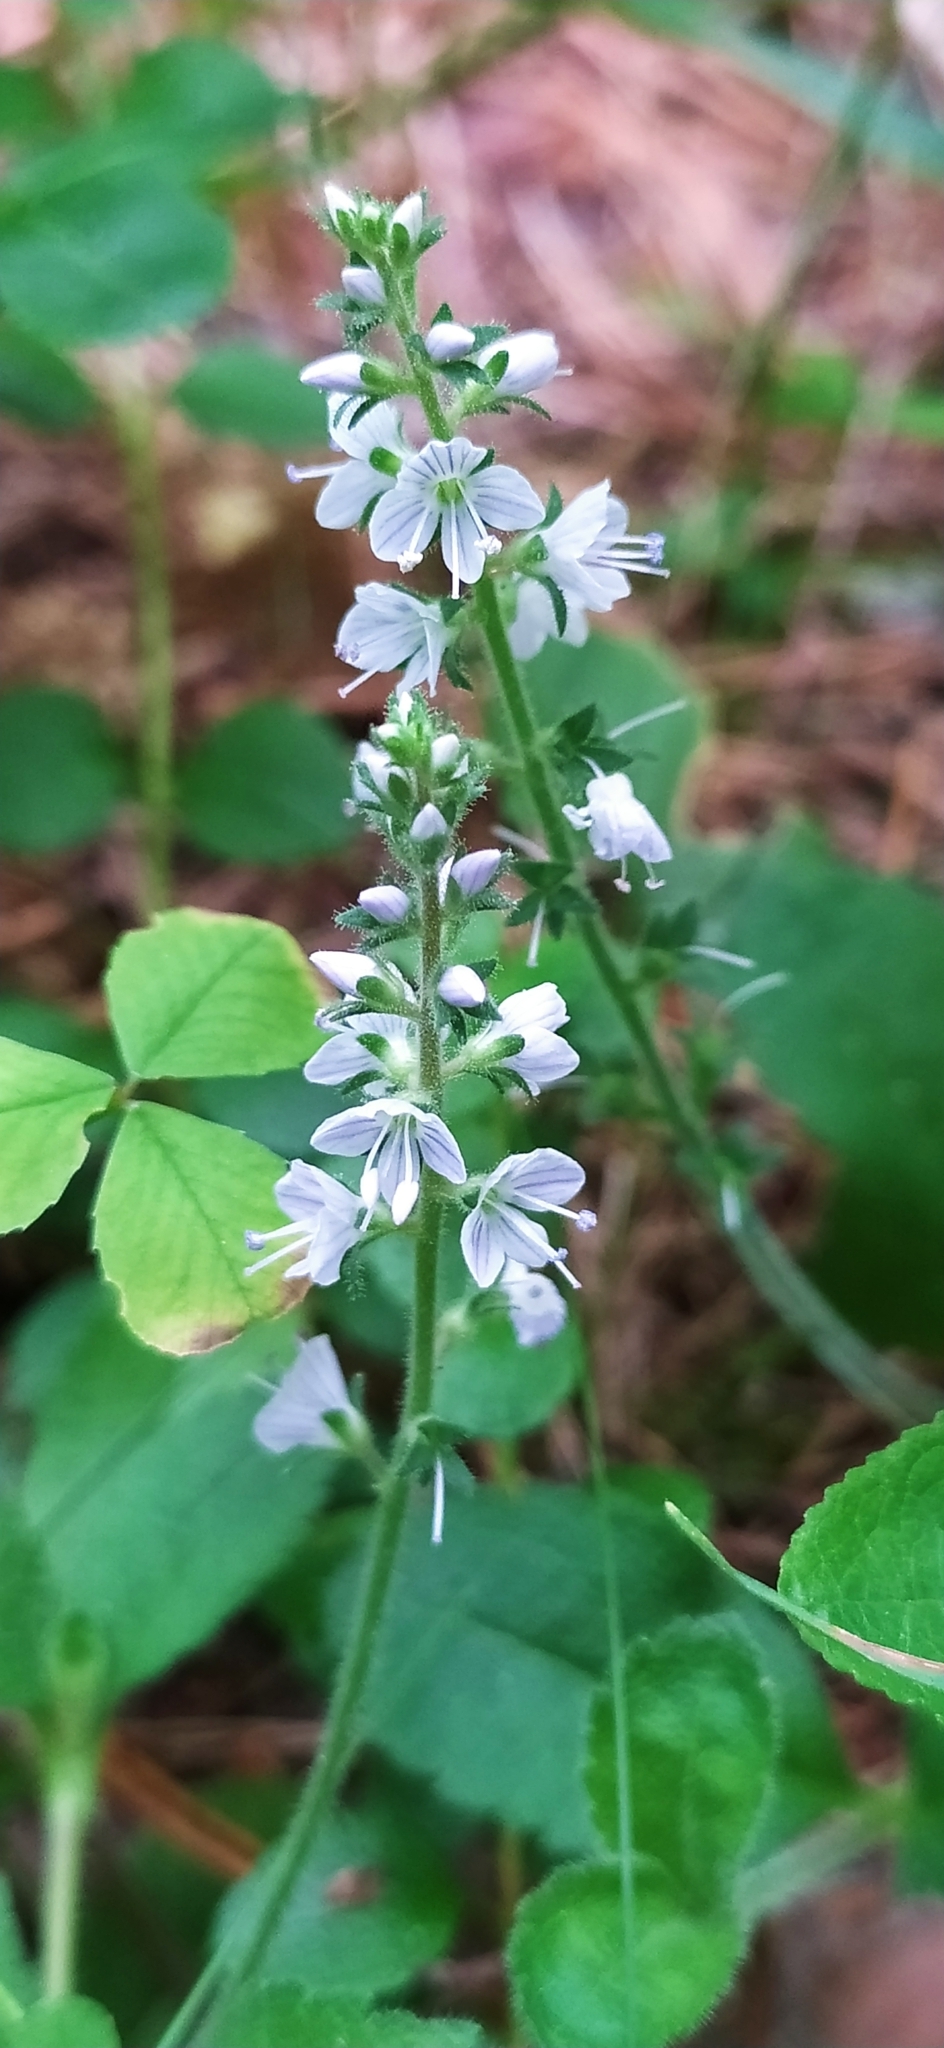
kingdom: Plantae
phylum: Tracheophyta
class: Magnoliopsida
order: Lamiales
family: Plantaginaceae
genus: Veronica
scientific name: Veronica officinalis
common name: Common speedwell
